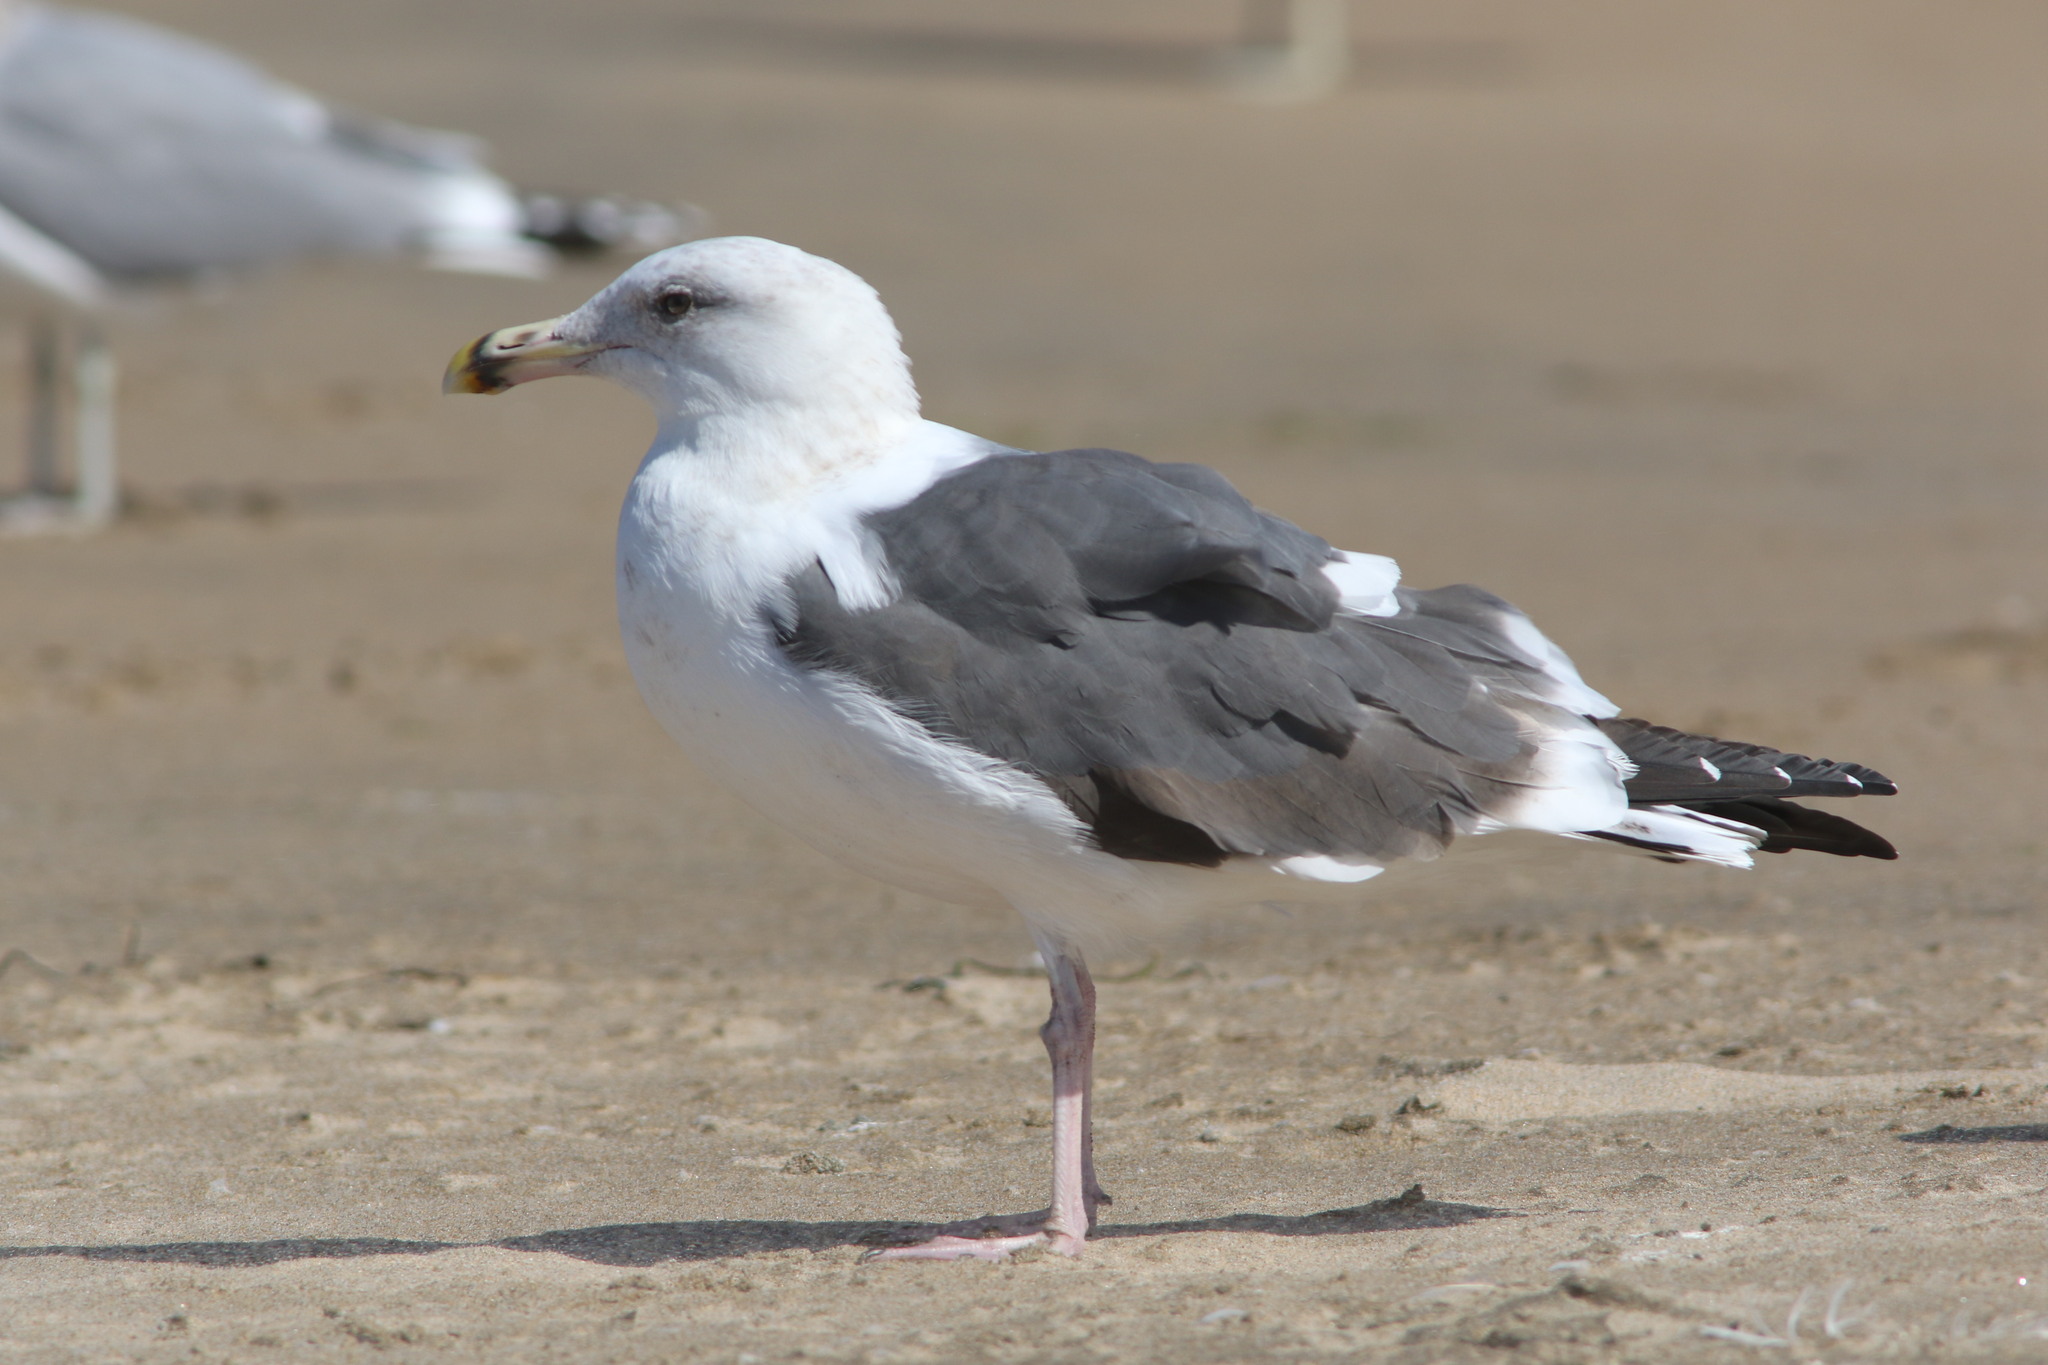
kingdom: Animalia
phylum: Chordata
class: Aves
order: Charadriiformes
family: Laridae
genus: Larus
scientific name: Larus occidentalis
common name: Western gull
